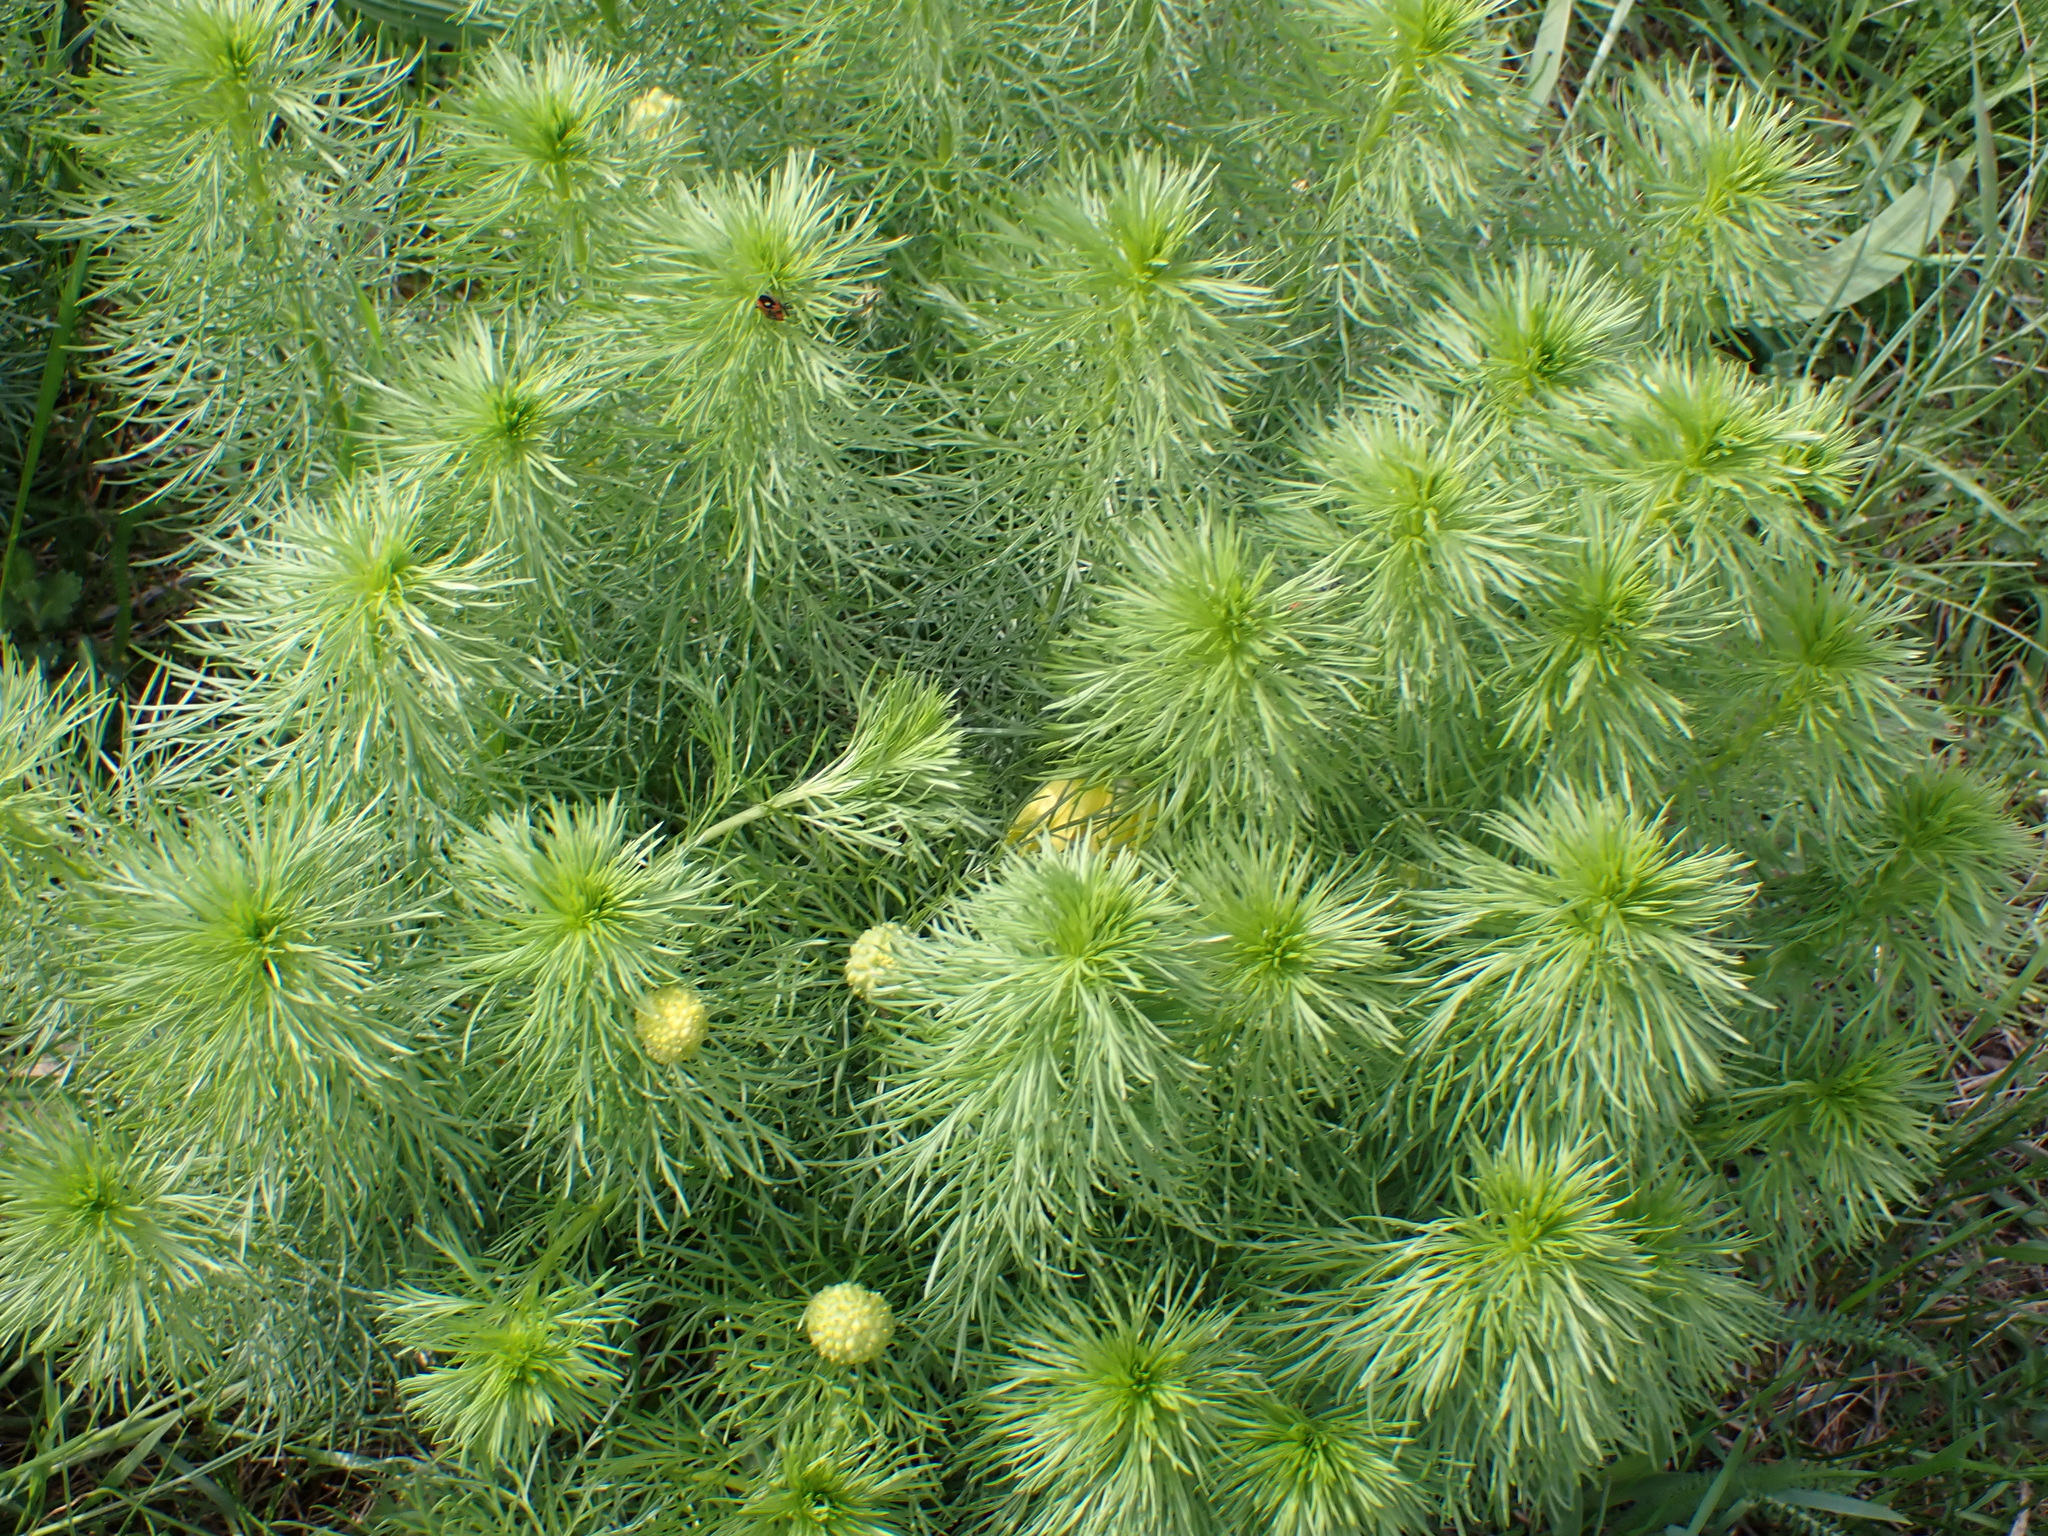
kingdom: Plantae
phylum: Tracheophyta
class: Magnoliopsida
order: Ranunculales
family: Ranunculaceae
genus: Adonis
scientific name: Adonis vernalis
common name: Yellow pheasants-eye
